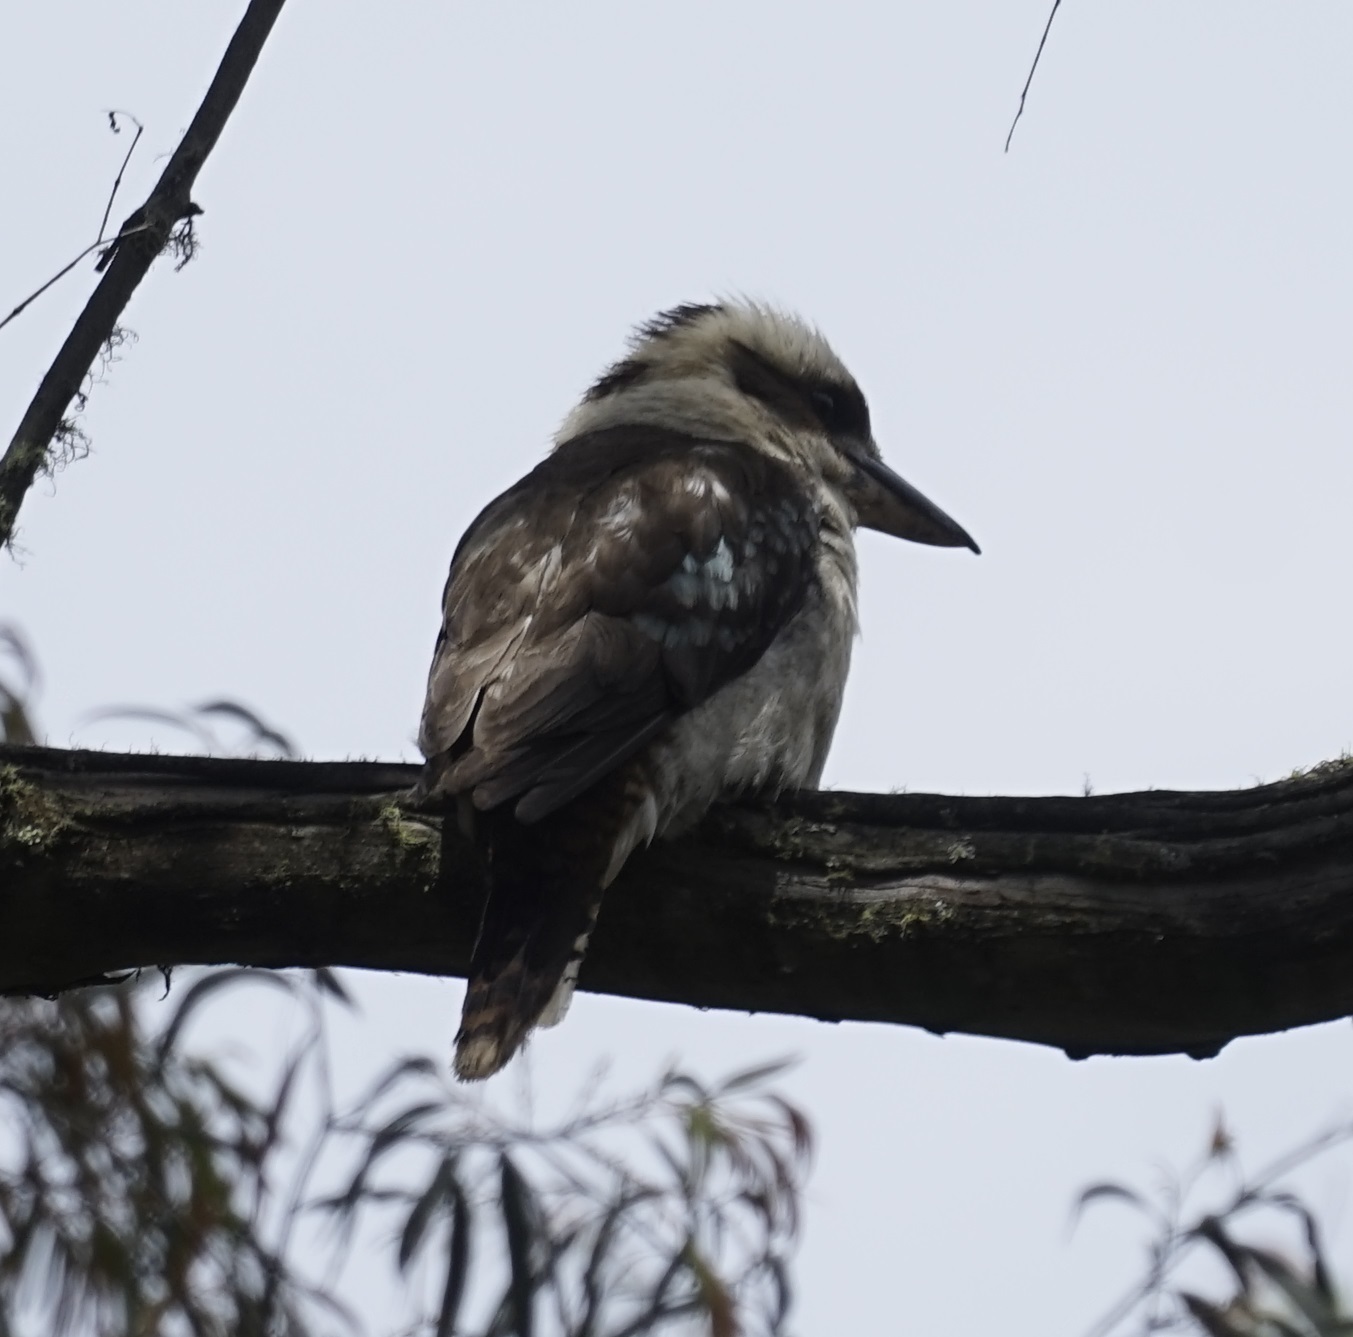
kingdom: Animalia
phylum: Chordata
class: Aves
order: Coraciiformes
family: Alcedinidae
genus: Dacelo
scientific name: Dacelo novaeguineae
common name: Laughing kookaburra
